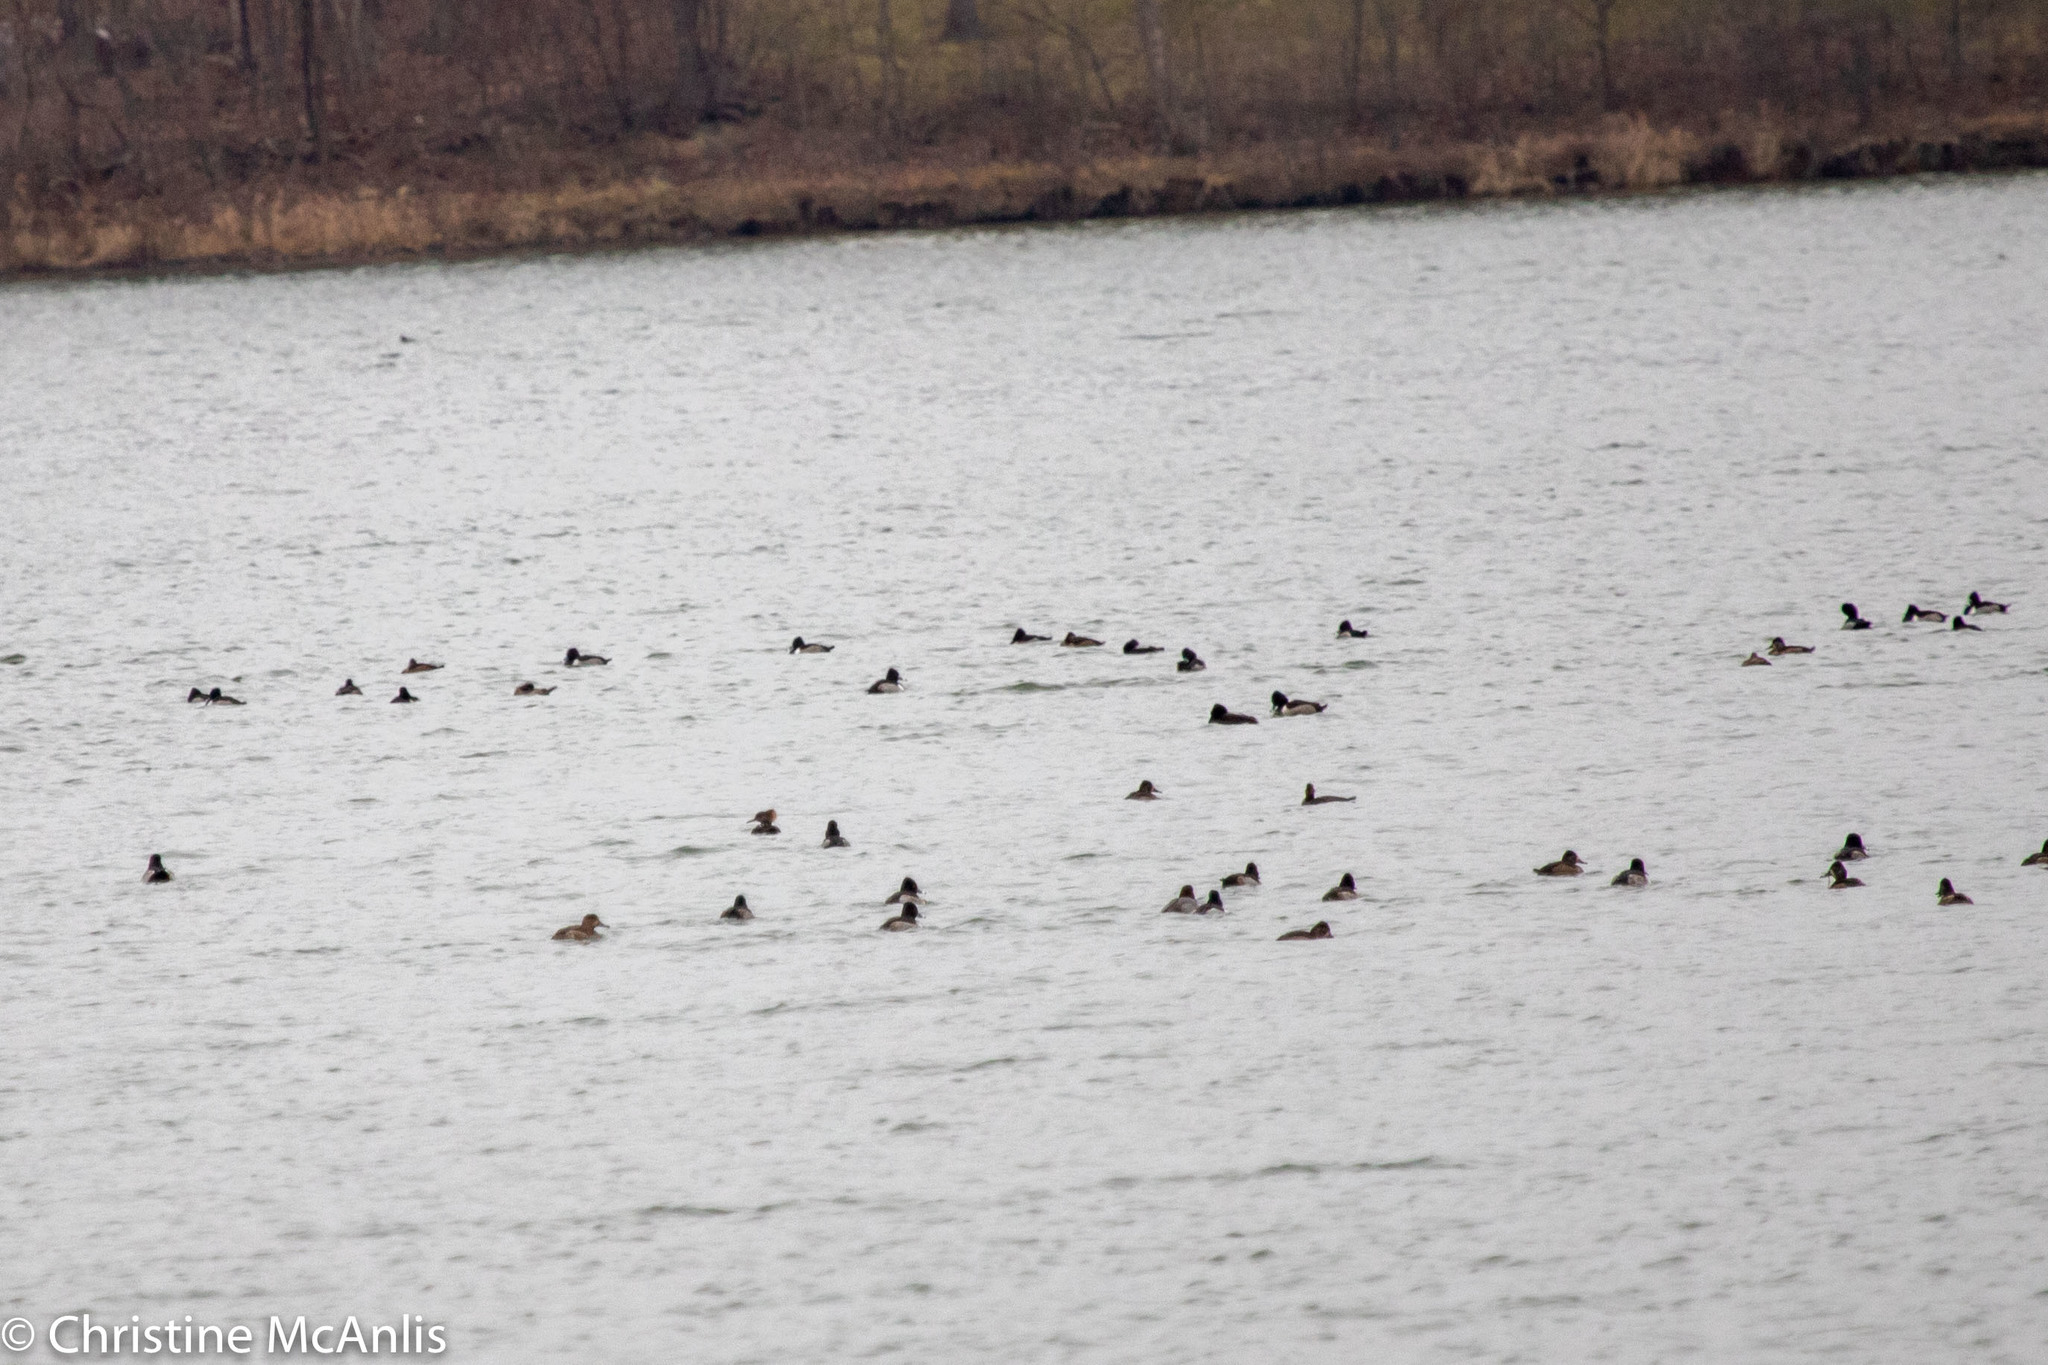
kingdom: Animalia
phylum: Chordata
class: Aves
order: Anseriformes
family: Anatidae
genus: Aythya
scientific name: Aythya collaris
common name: Ring-necked duck
